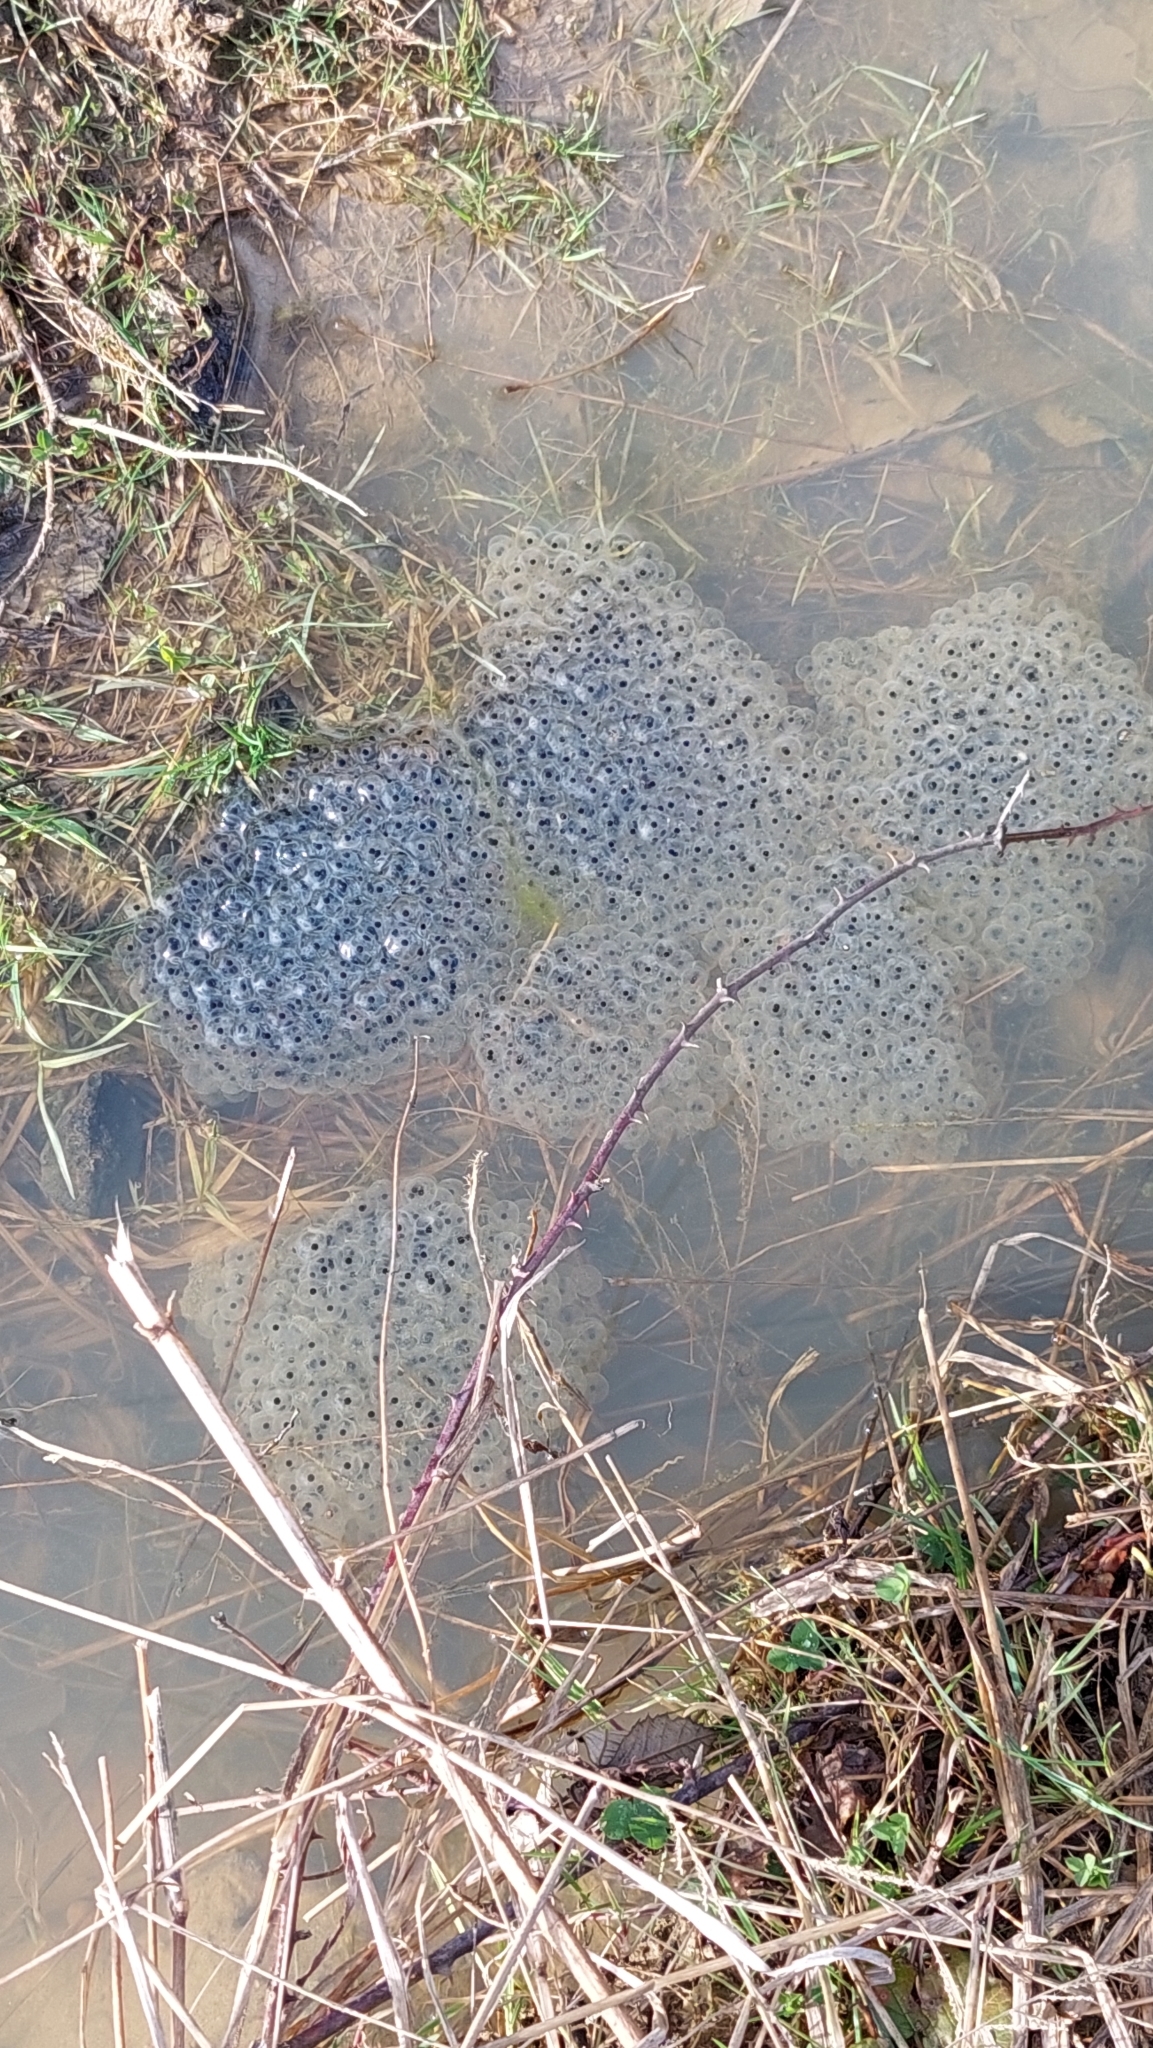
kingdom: Animalia
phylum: Chordata
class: Amphibia
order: Anura
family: Ranidae
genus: Rana
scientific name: Rana macrocnemis
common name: Banded frog
